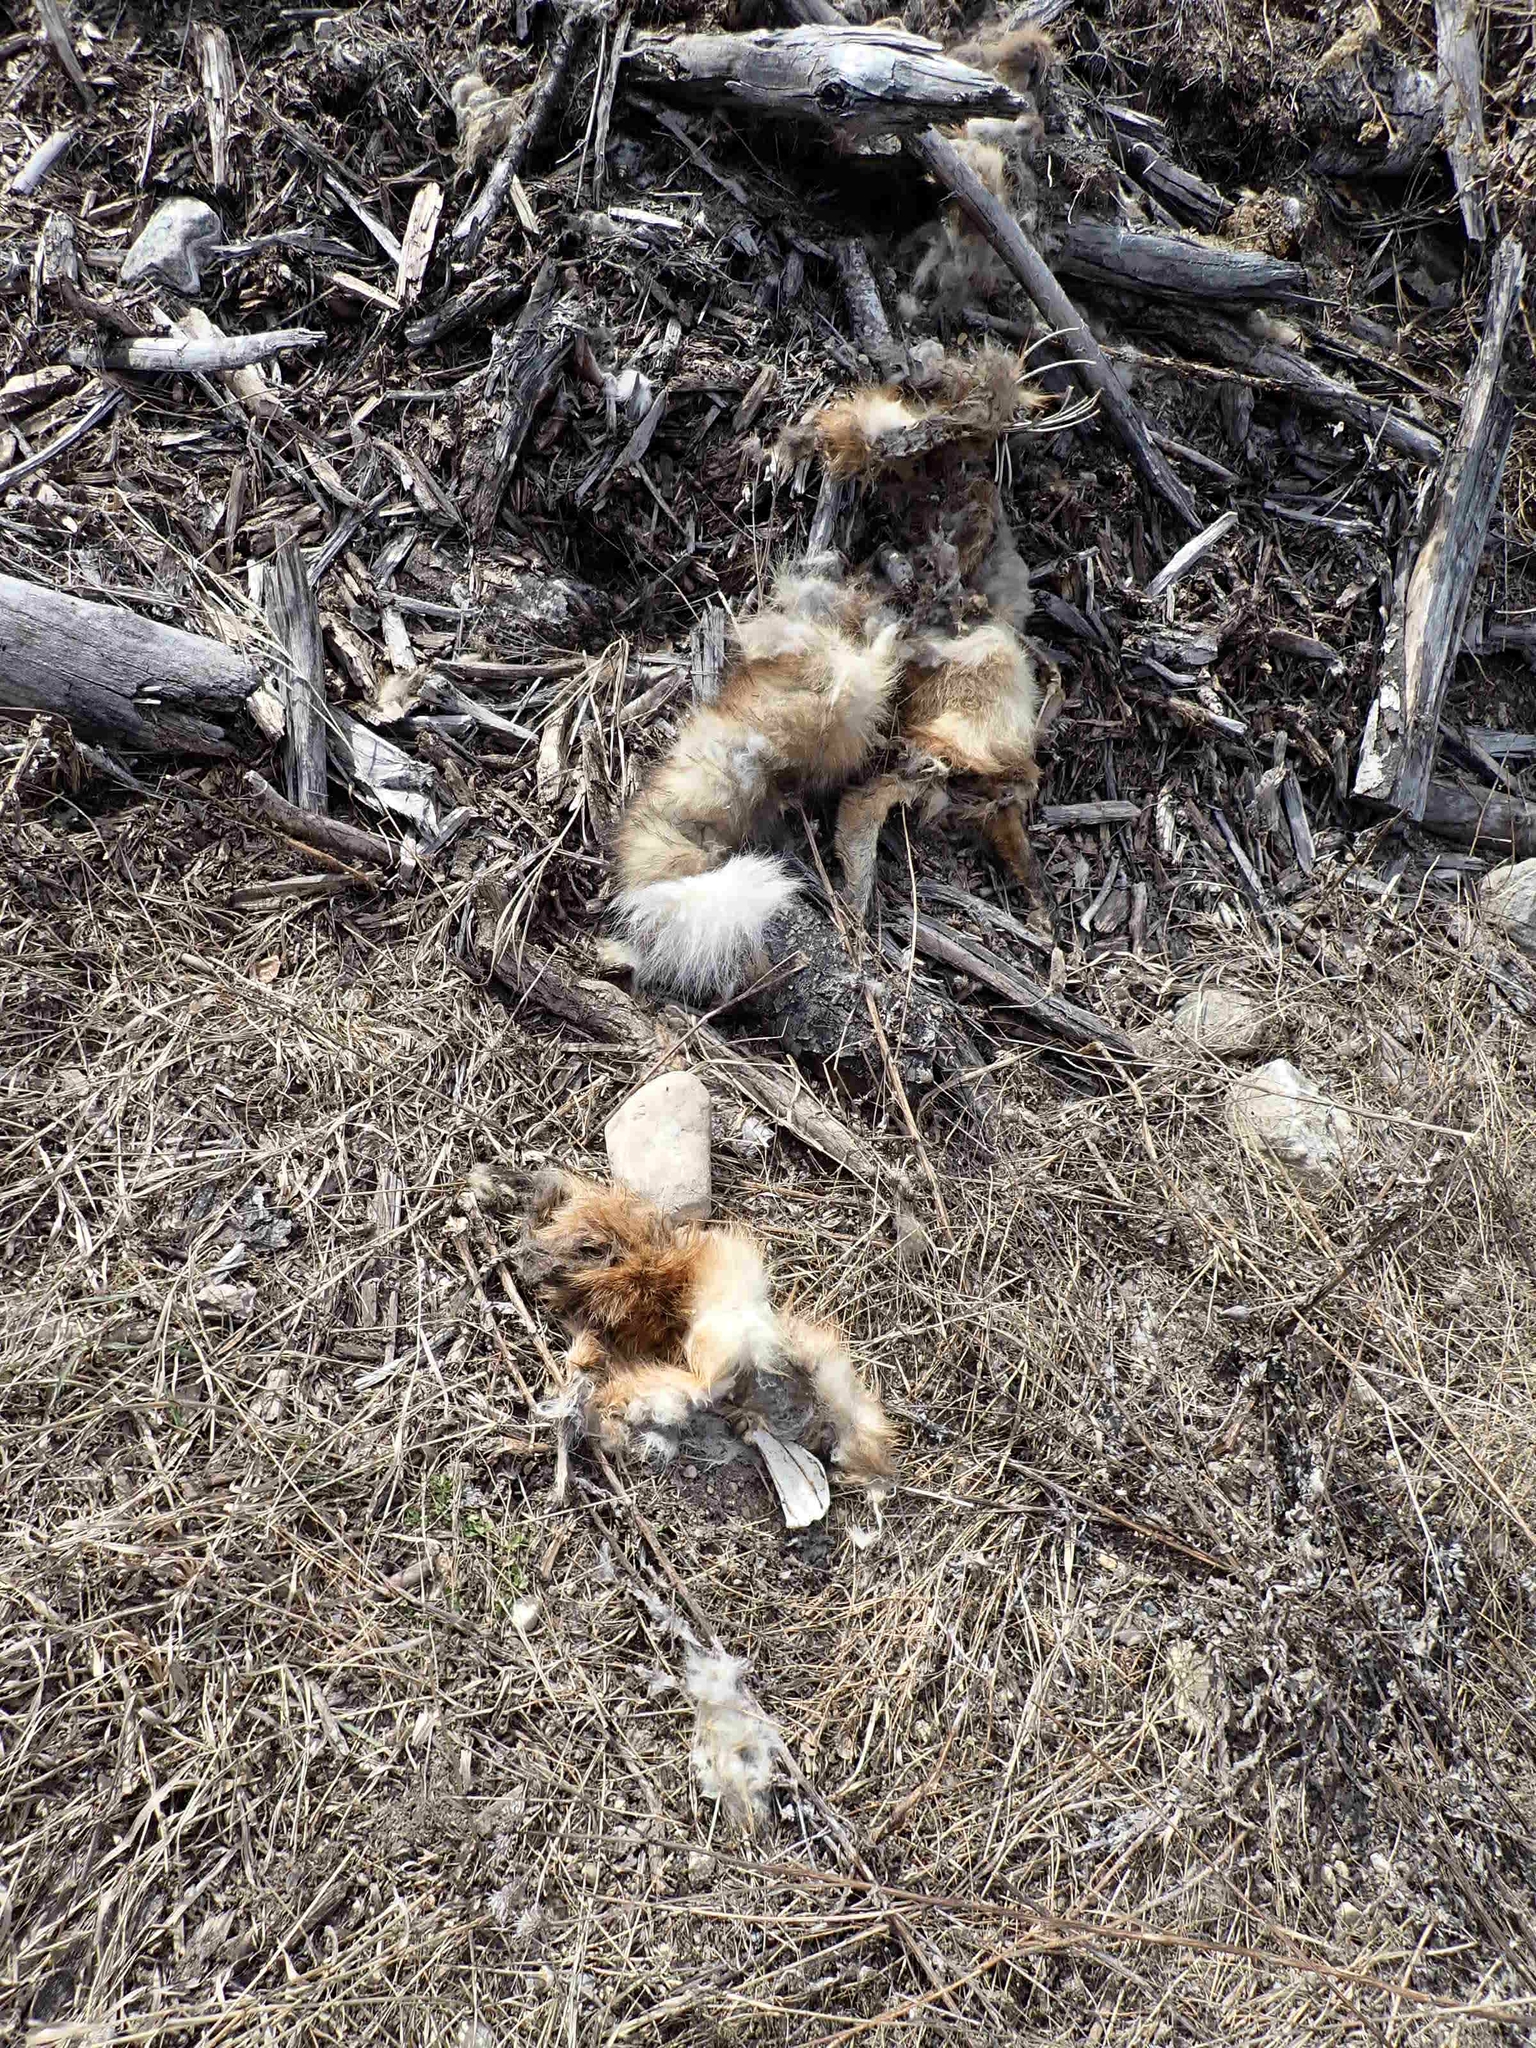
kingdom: Animalia
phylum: Chordata
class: Mammalia
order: Carnivora
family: Canidae
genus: Vulpes
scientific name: Vulpes vulpes
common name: Red fox
